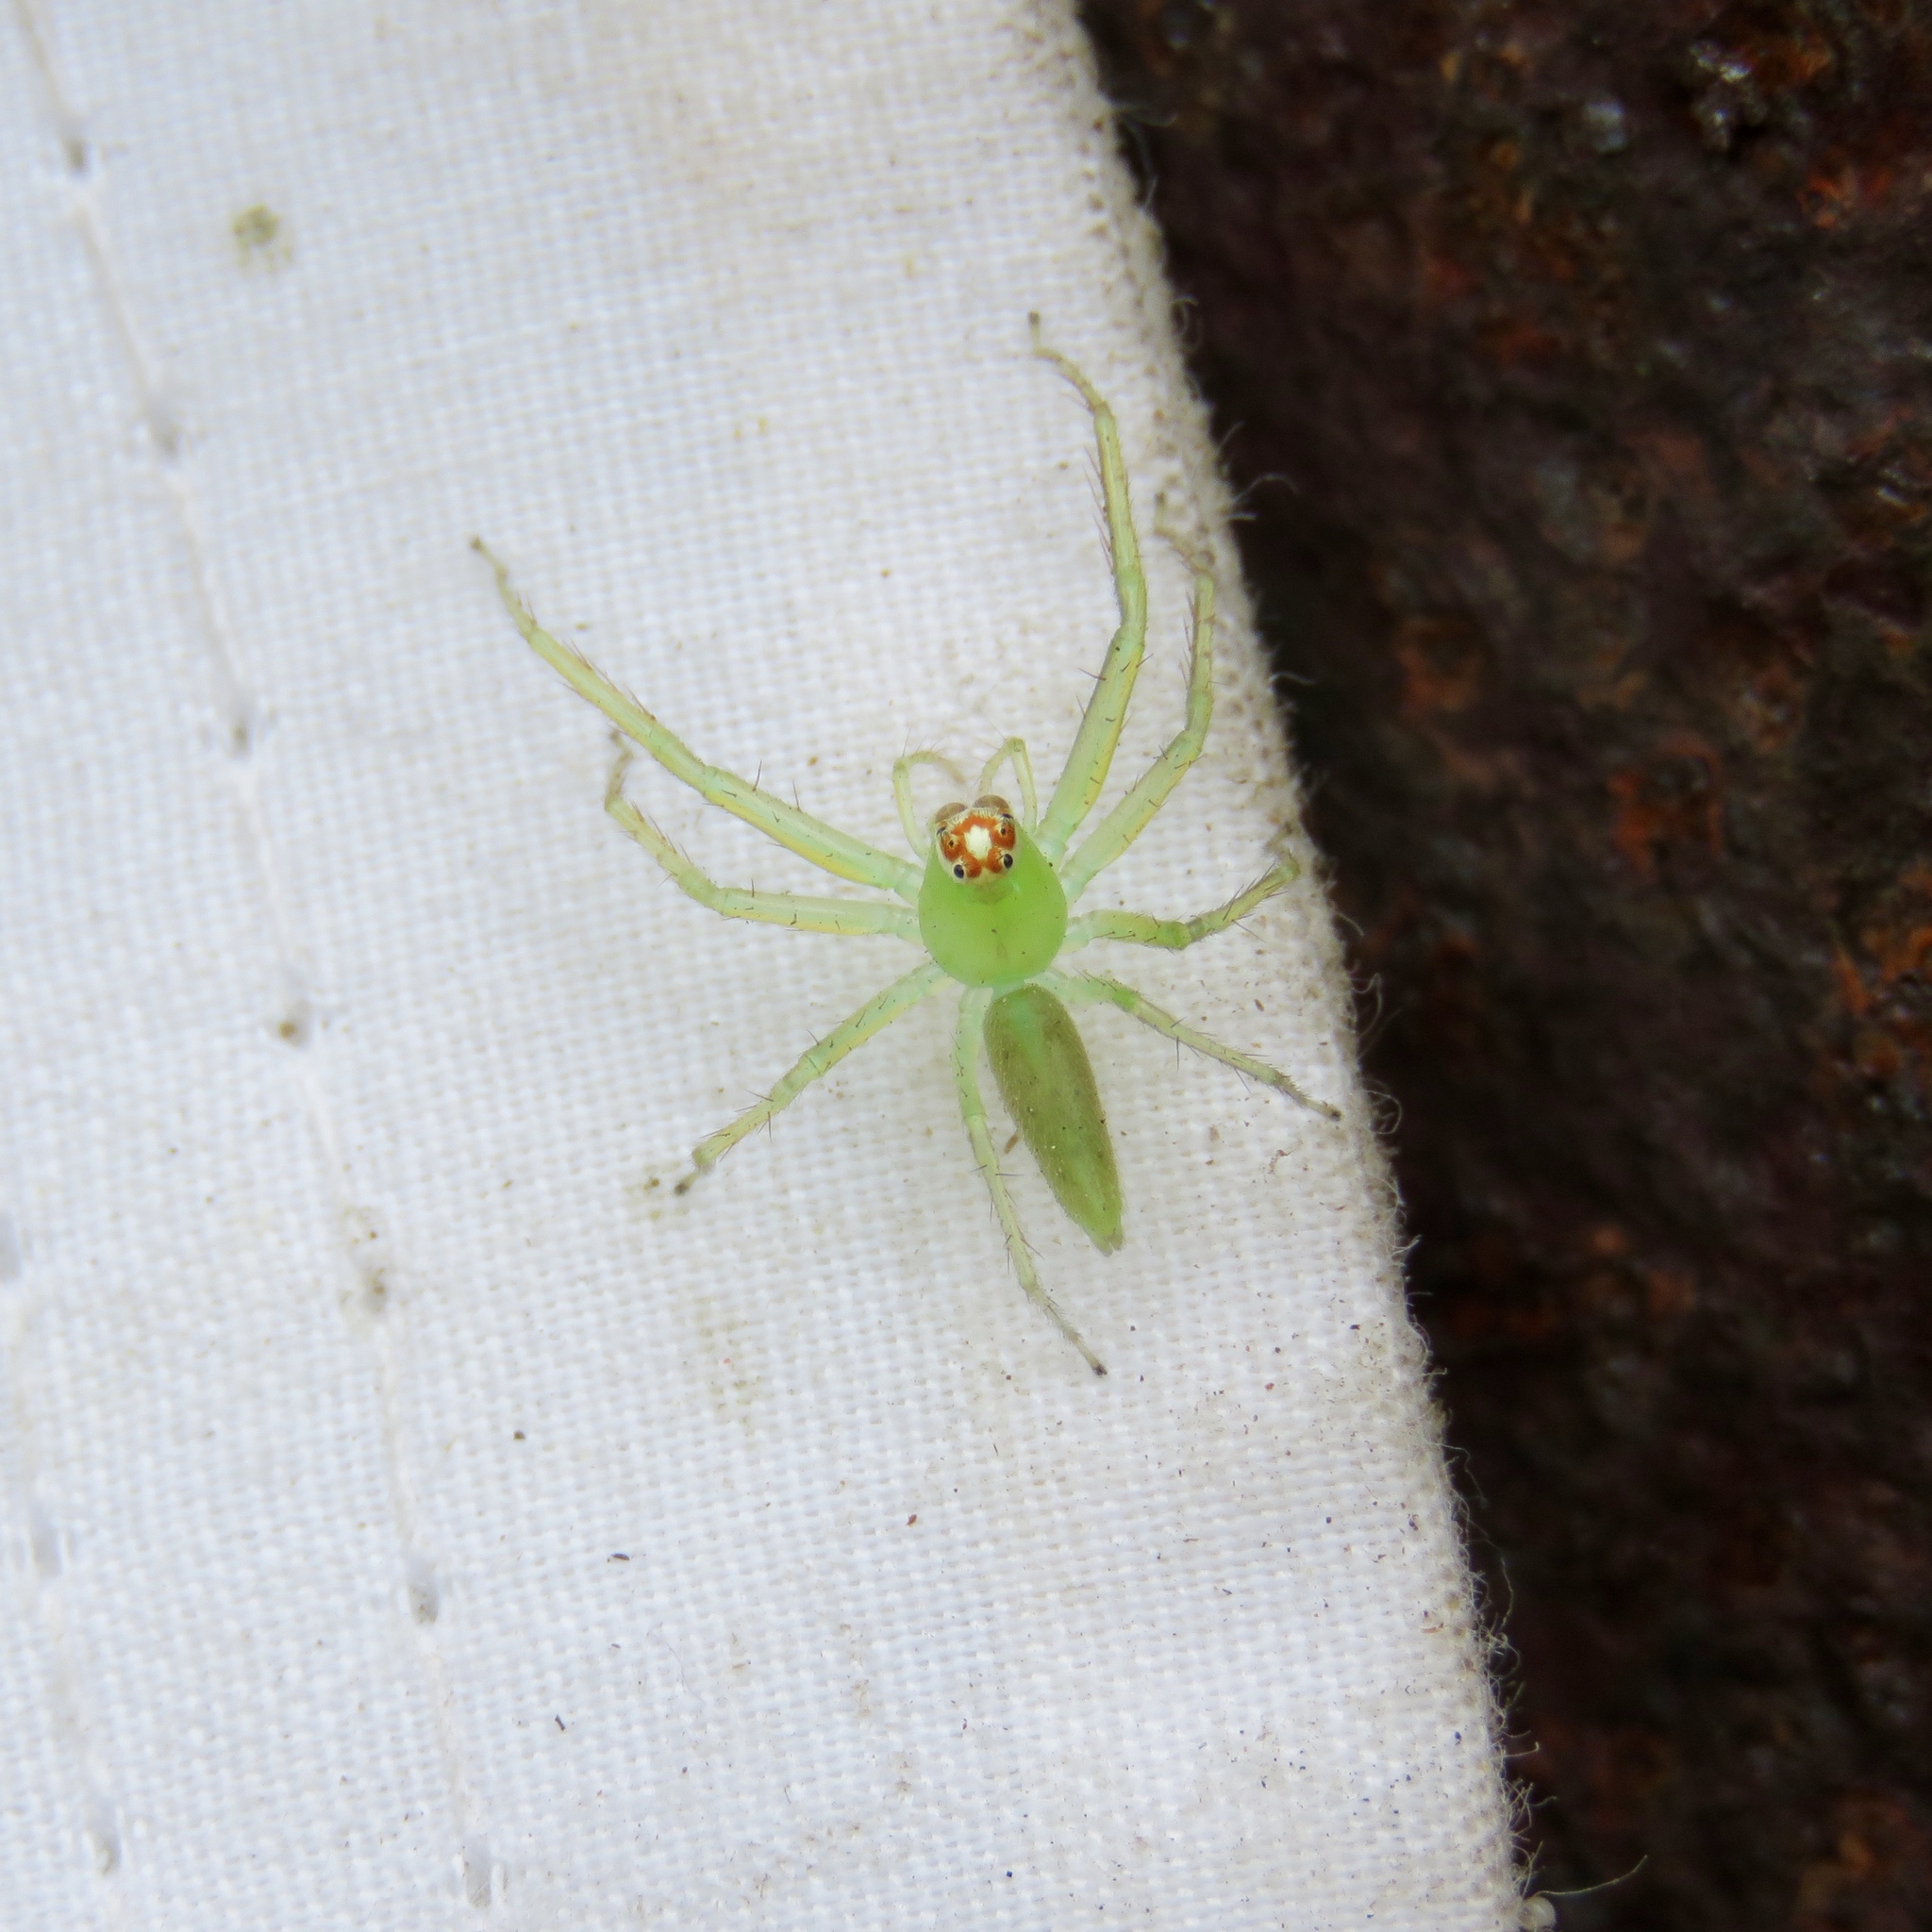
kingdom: Animalia
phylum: Arthropoda
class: Arachnida
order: Araneae
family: Salticidae
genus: Lyssomanes
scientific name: Lyssomanes viridis
